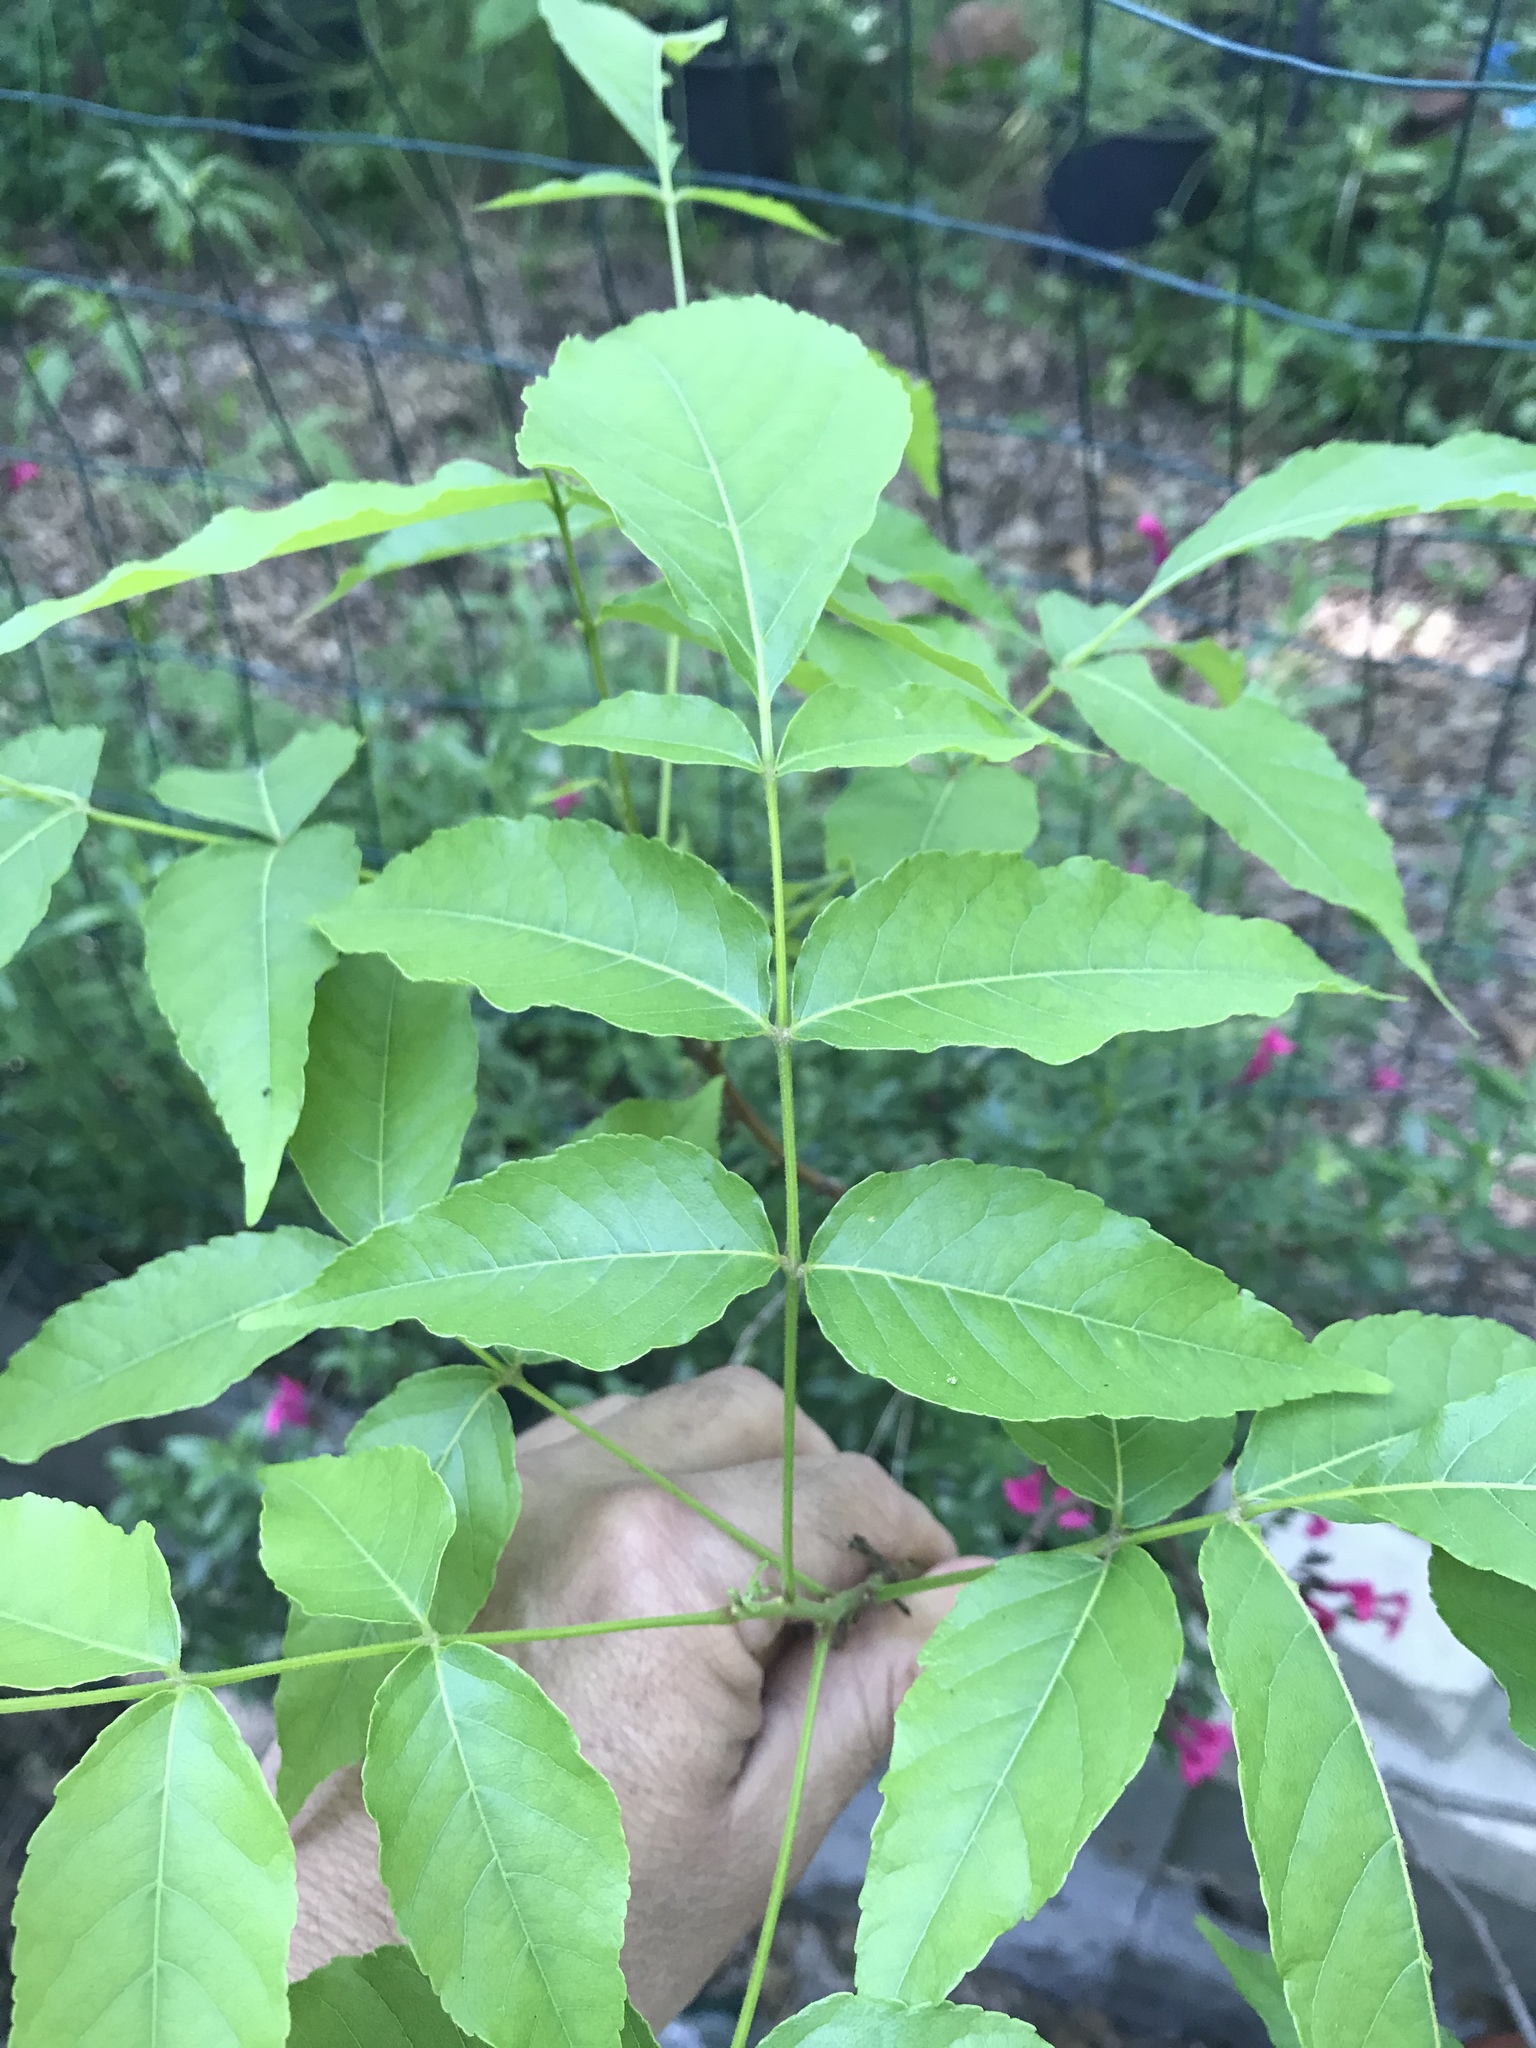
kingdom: Plantae
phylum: Tracheophyta
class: Magnoliopsida
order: Sapindales
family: Sapindaceae
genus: Ungnadia
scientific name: Ungnadia speciosa
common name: Texas-buckeye
